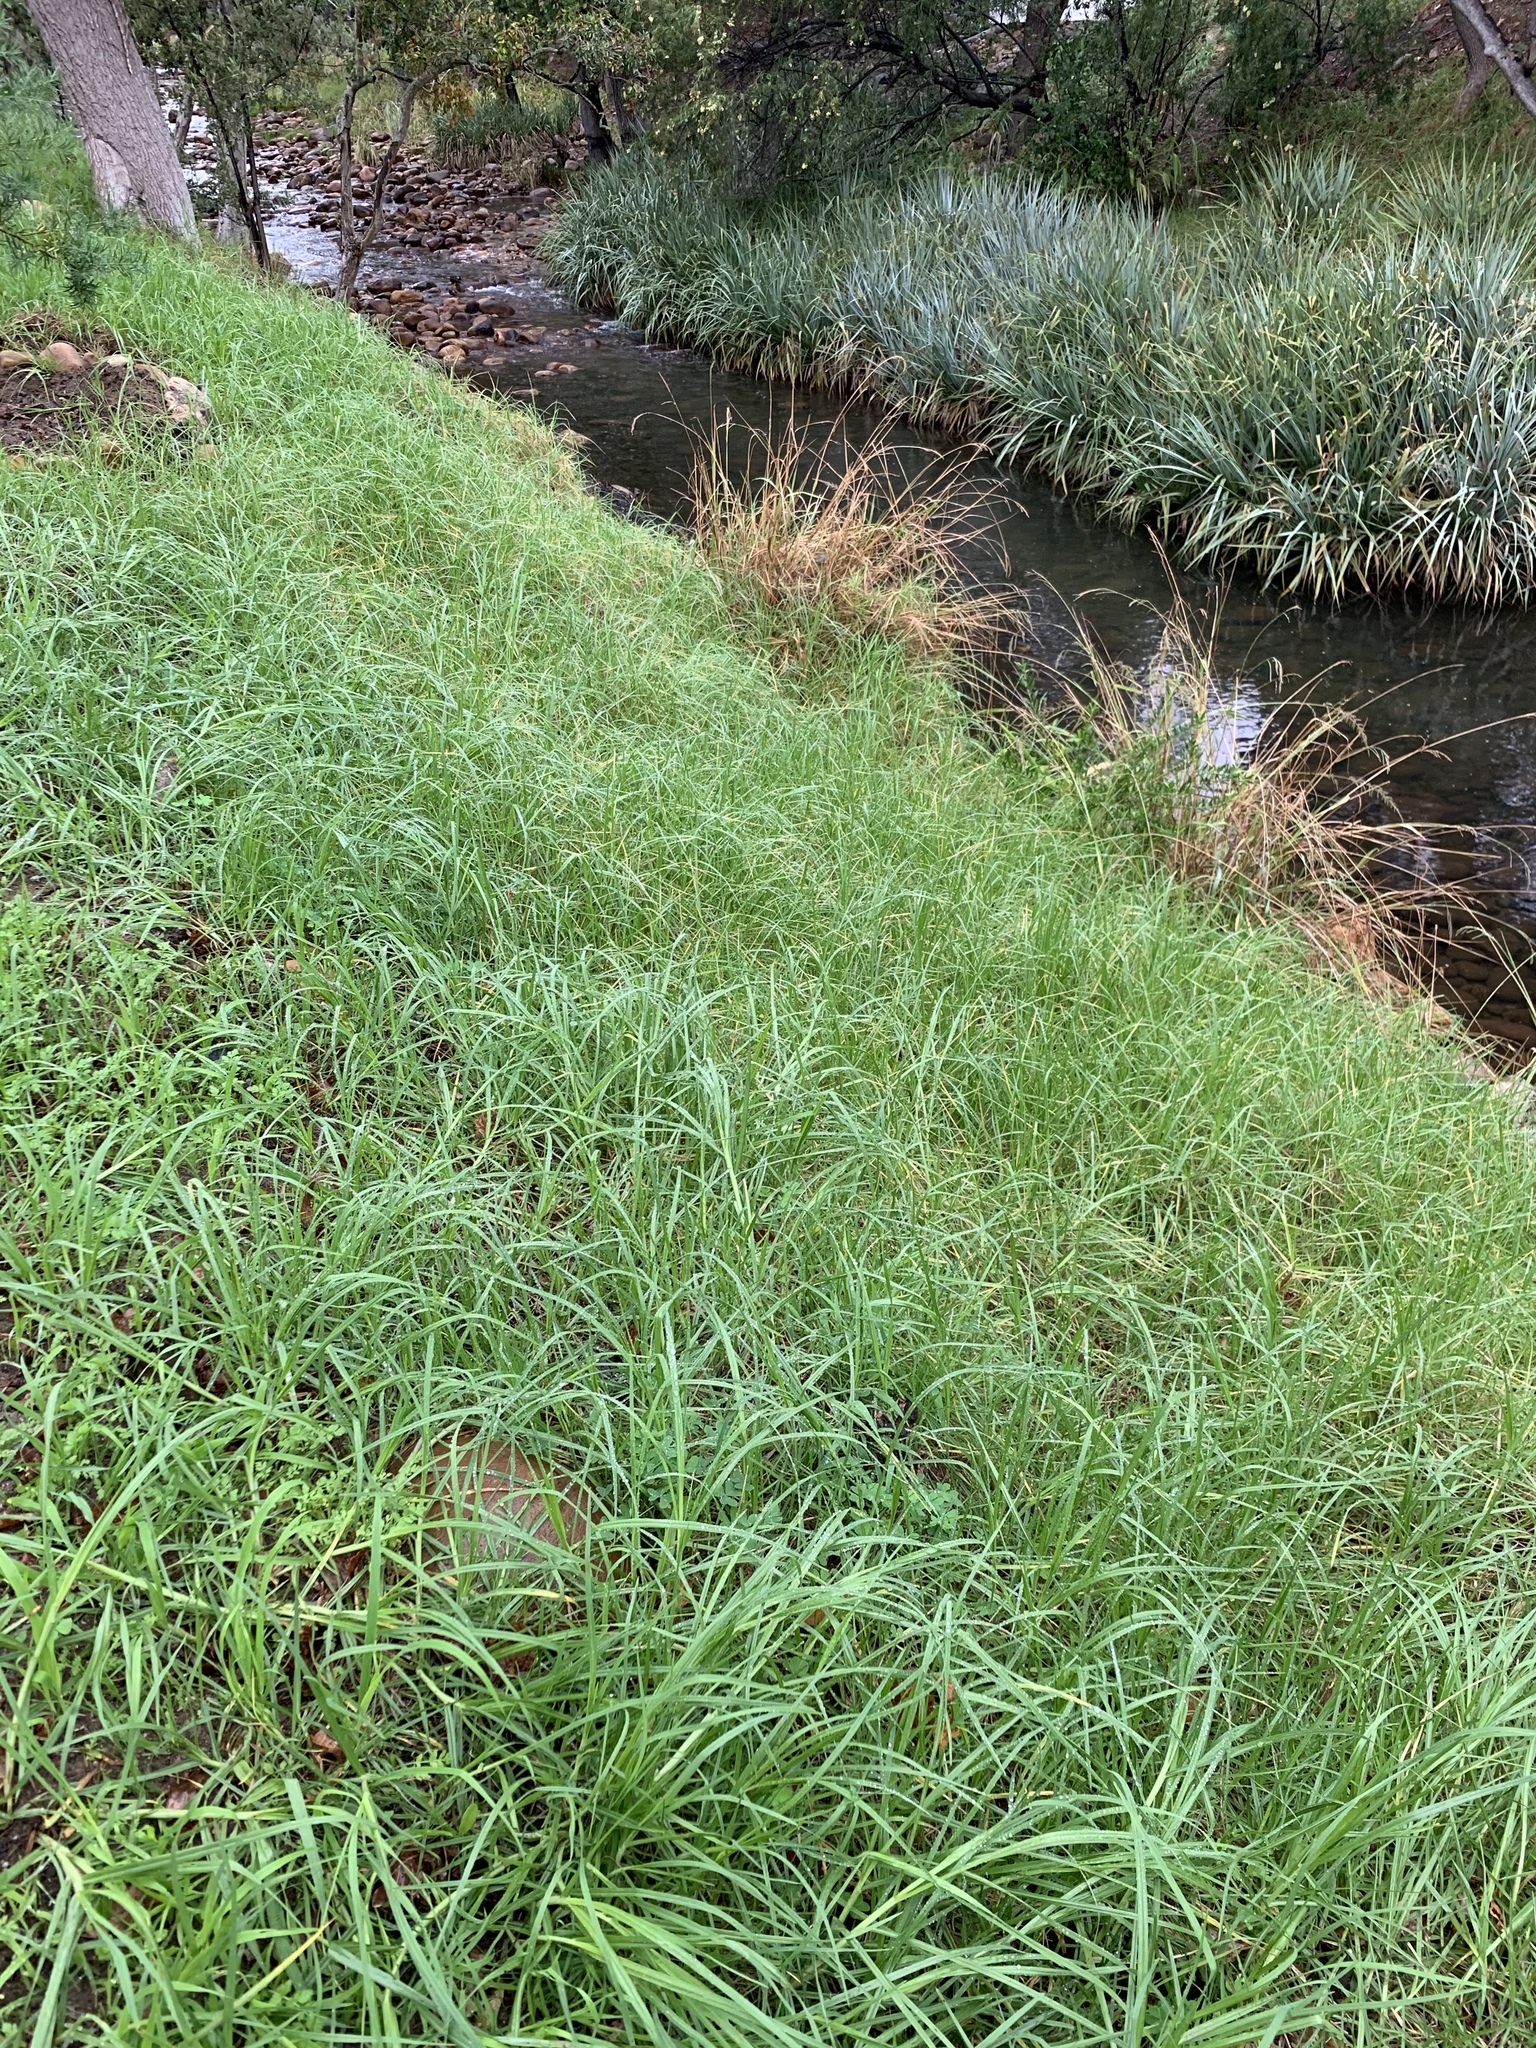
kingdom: Plantae
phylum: Tracheophyta
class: Liliopsida
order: Poales
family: Poaceae
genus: Cenchrus
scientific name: Cenchrus clandestinus
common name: Kikuyugrass
